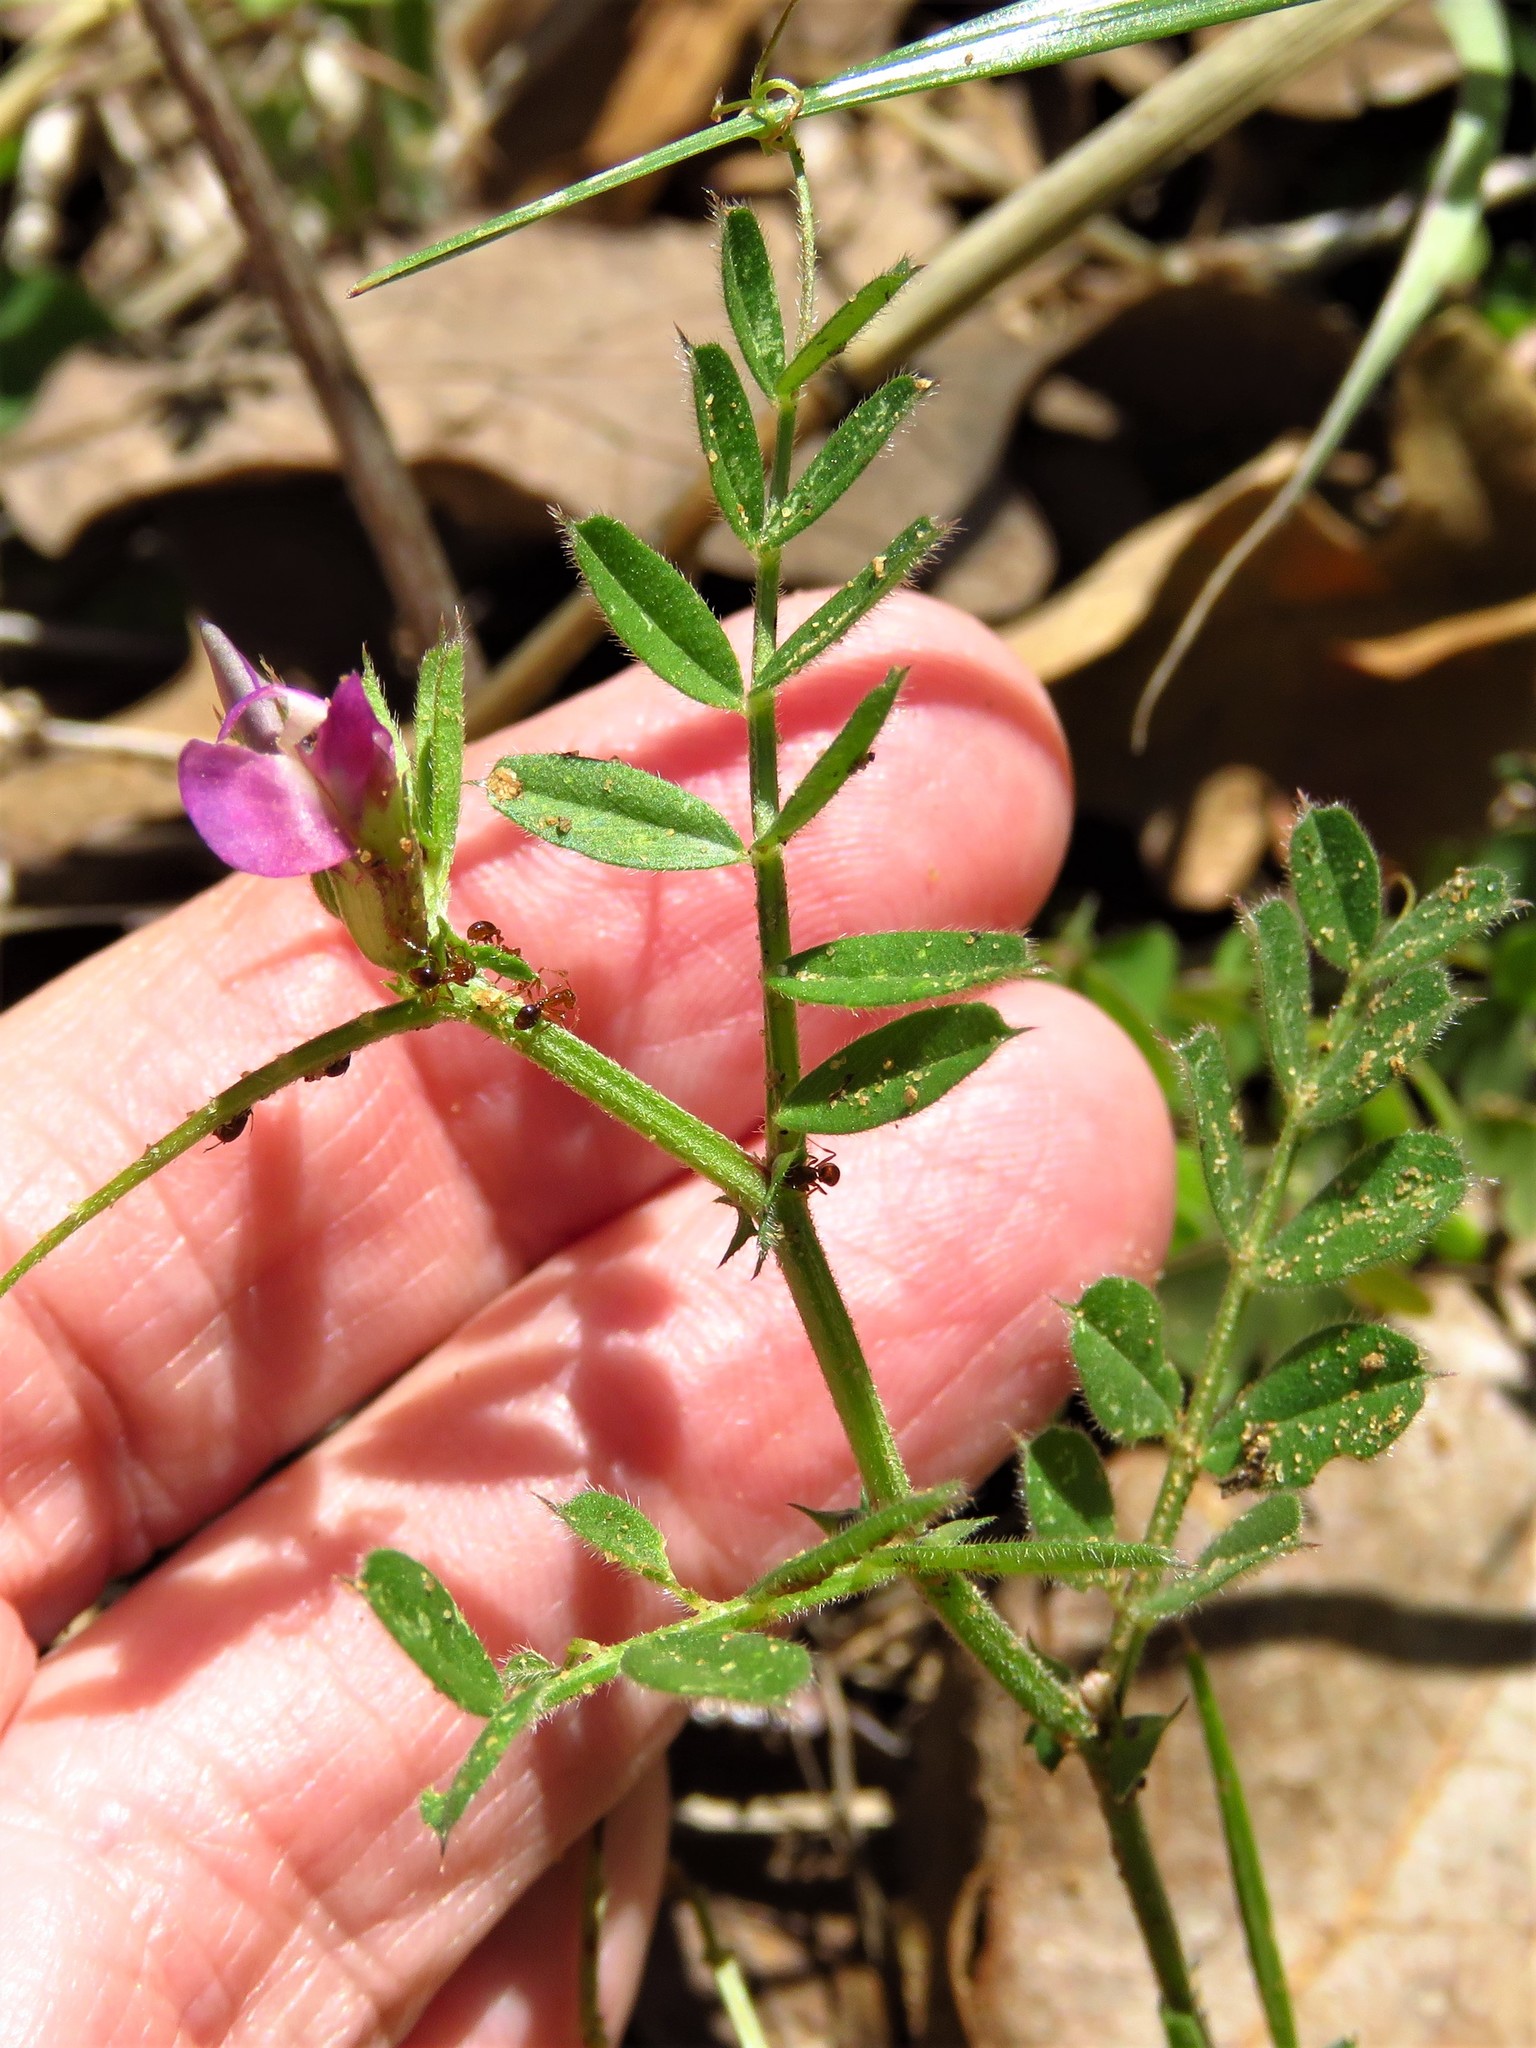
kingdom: Plantae
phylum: Tracheophyta
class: Magnoliopsida
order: Fabales
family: Fabaceae
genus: Vicia
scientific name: Vicia sativa
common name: Garden vetch
